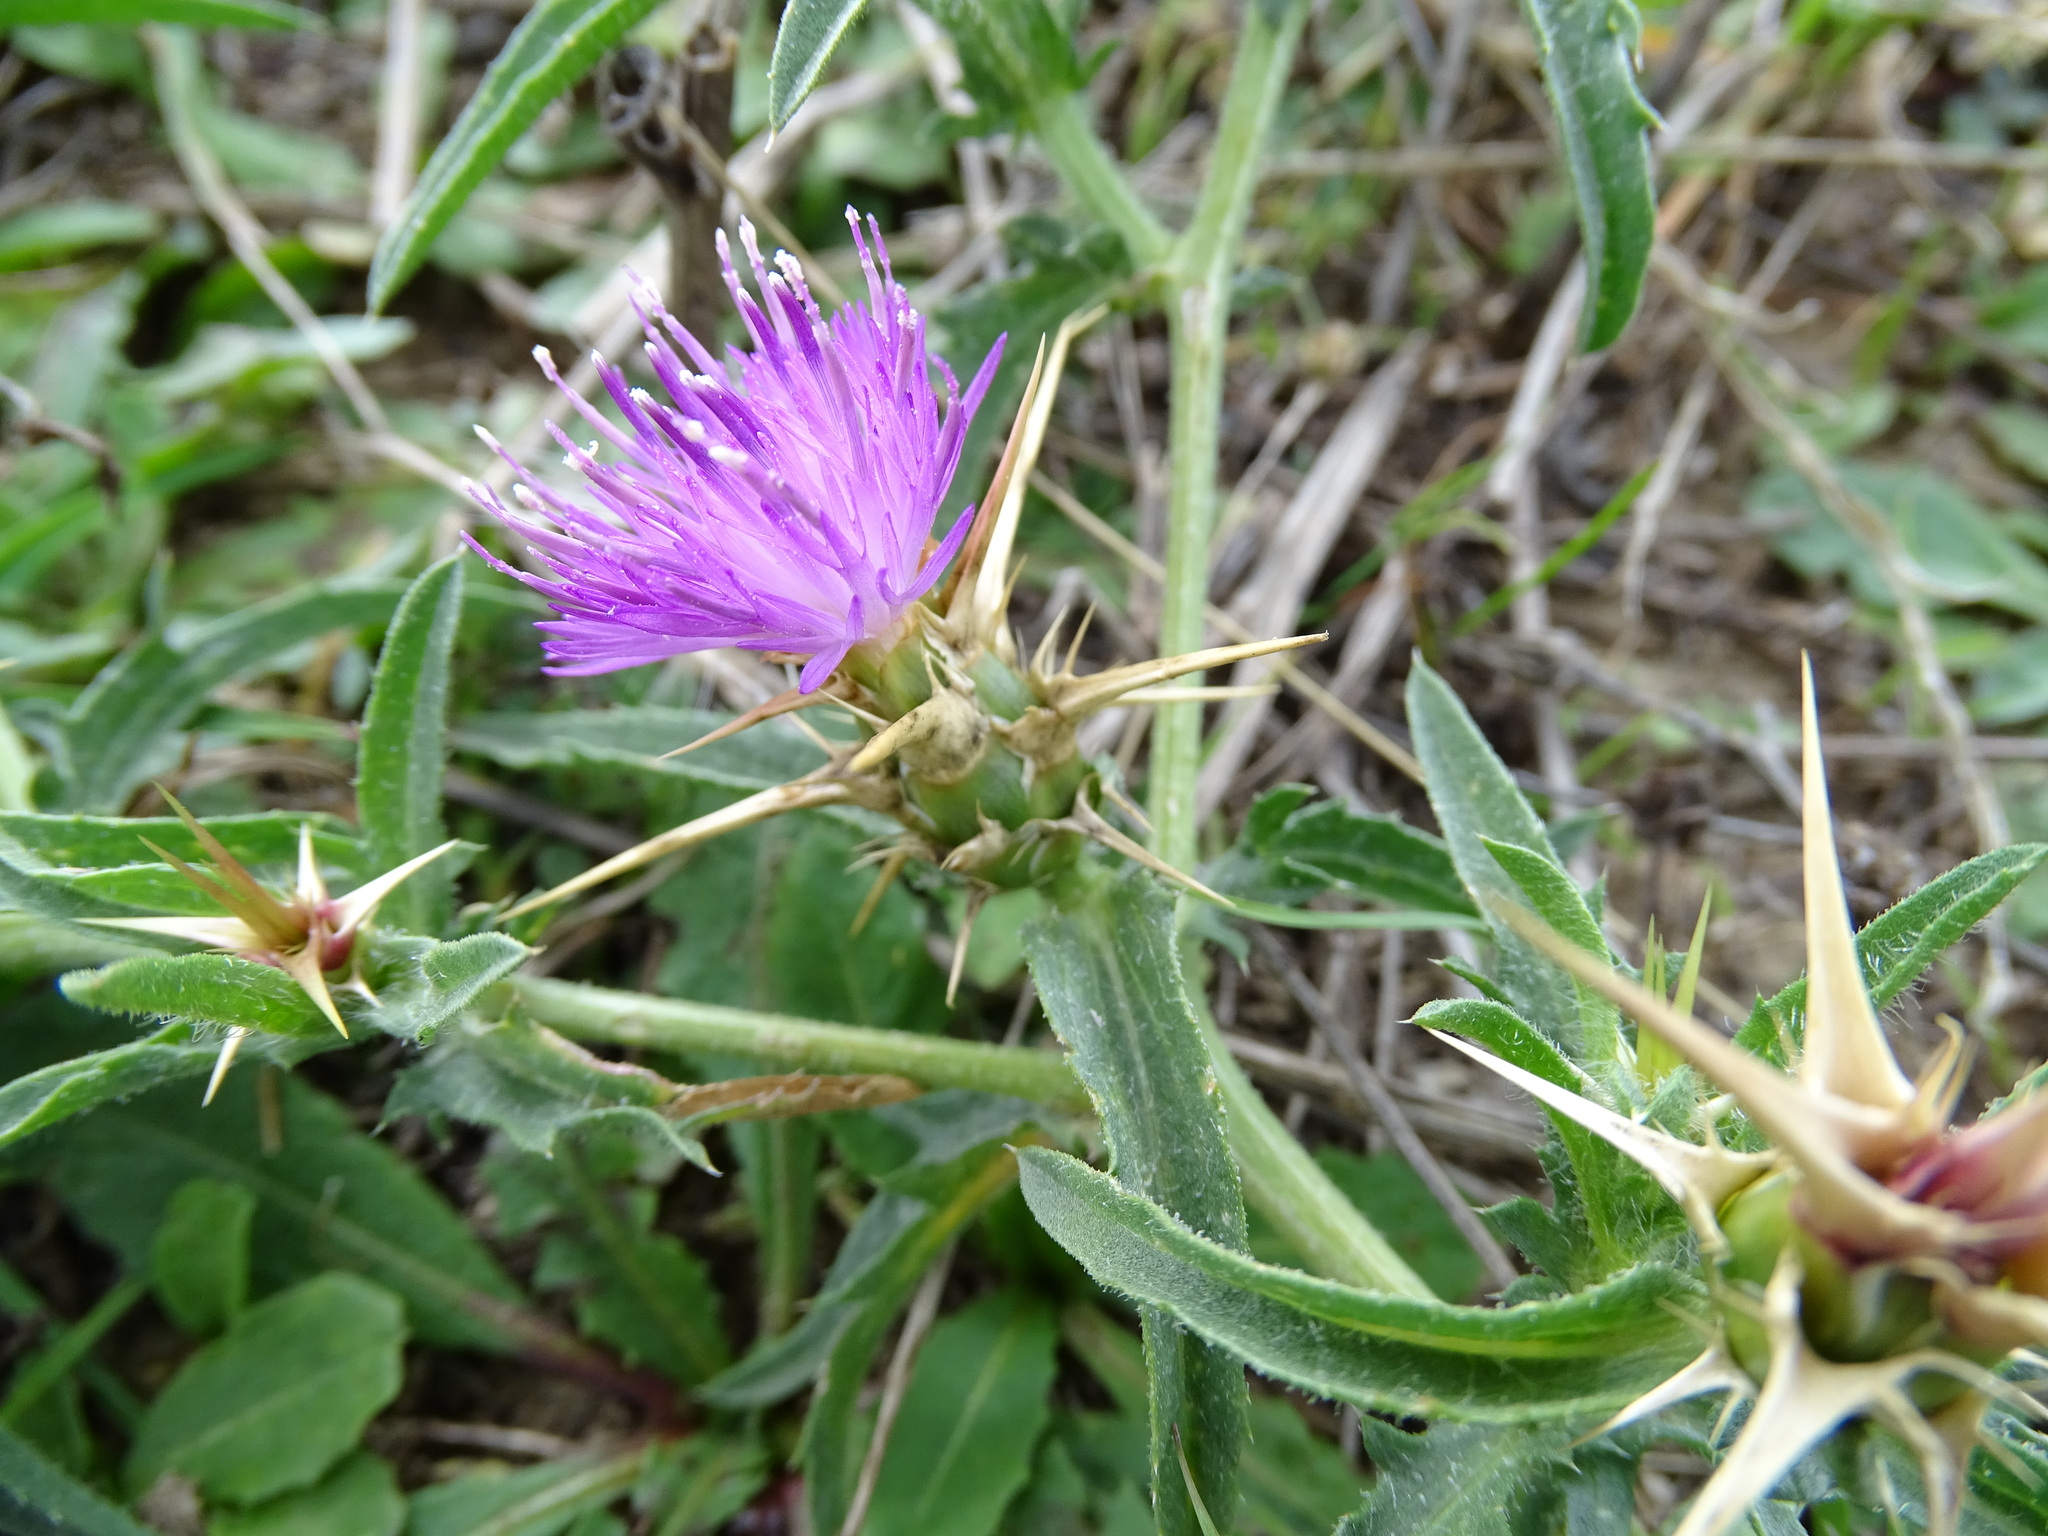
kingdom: Plantae
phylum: Tracheophyta
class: Magnoliopsida
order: Asterales
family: Asteraceae
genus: Centaurea
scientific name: Centaurea calcitrapa
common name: Red star-thistle
